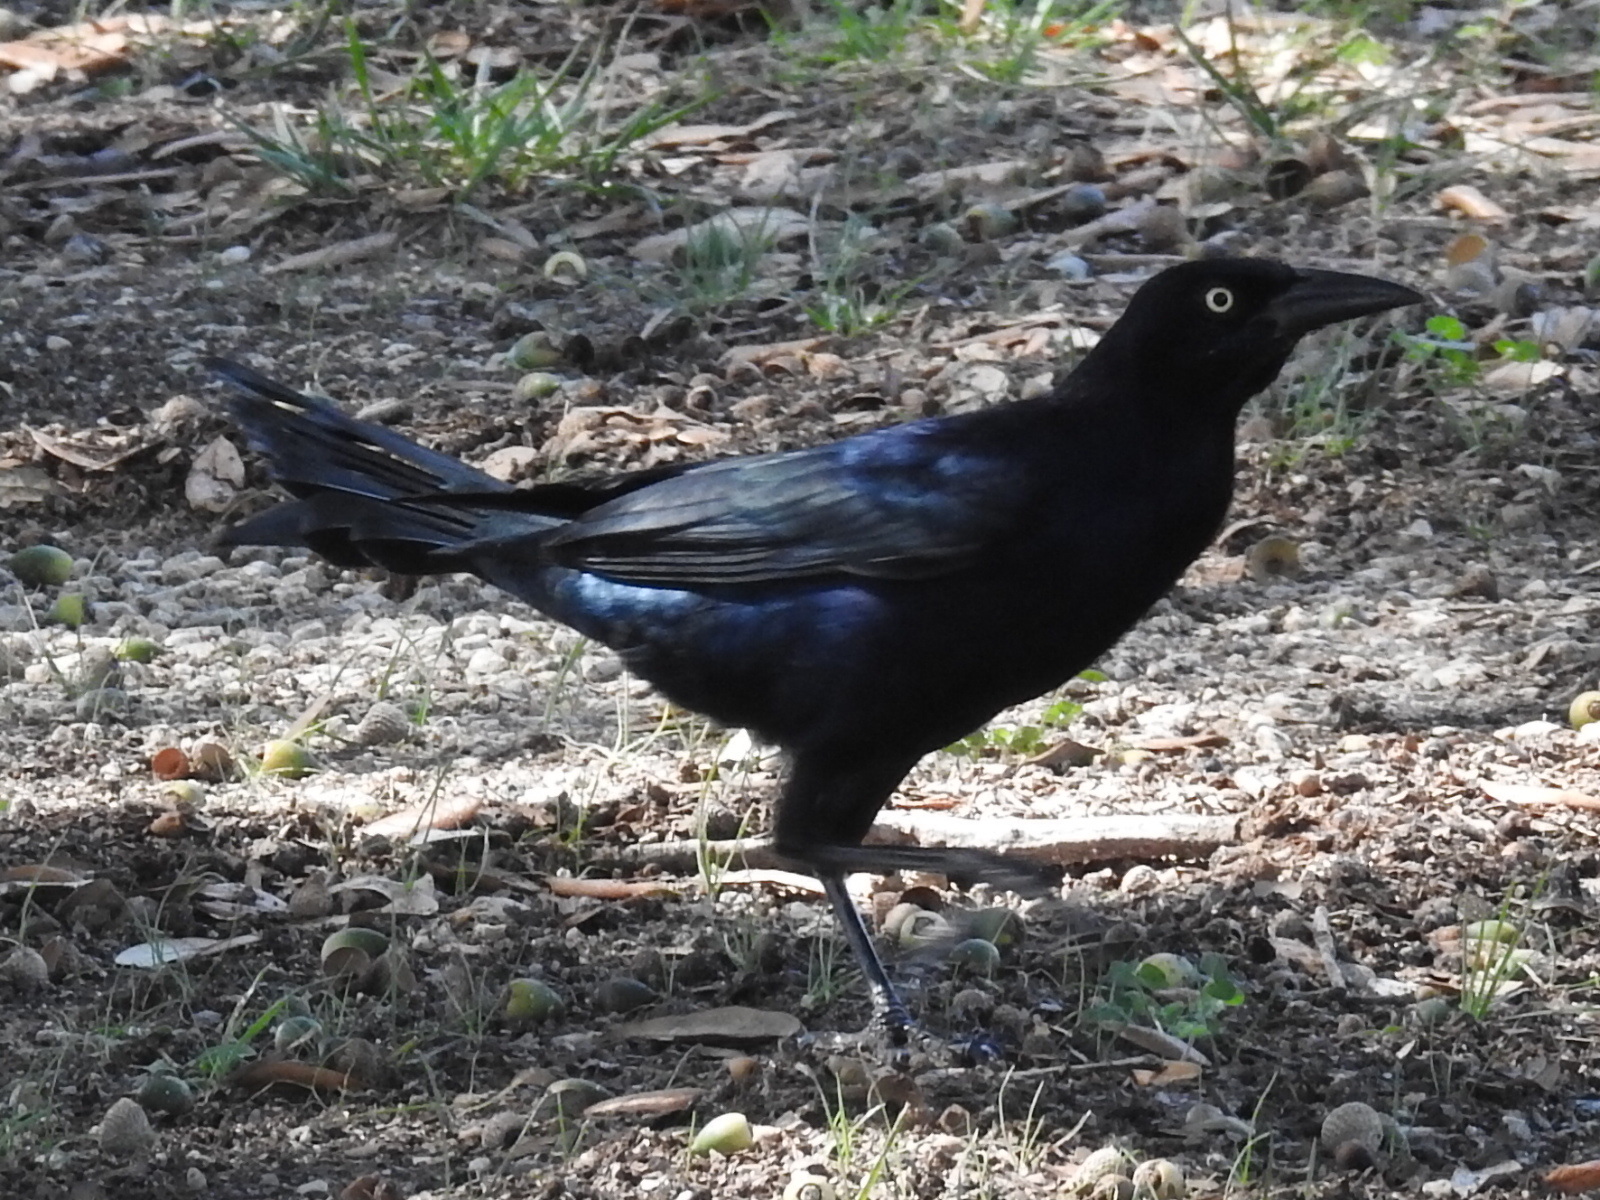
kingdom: Animalia
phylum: Chordata
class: Aves
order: Passeriformes
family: Icteridae
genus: Quiscalus
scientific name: Quiscalus mexicanus
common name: Great-tailed grackle
